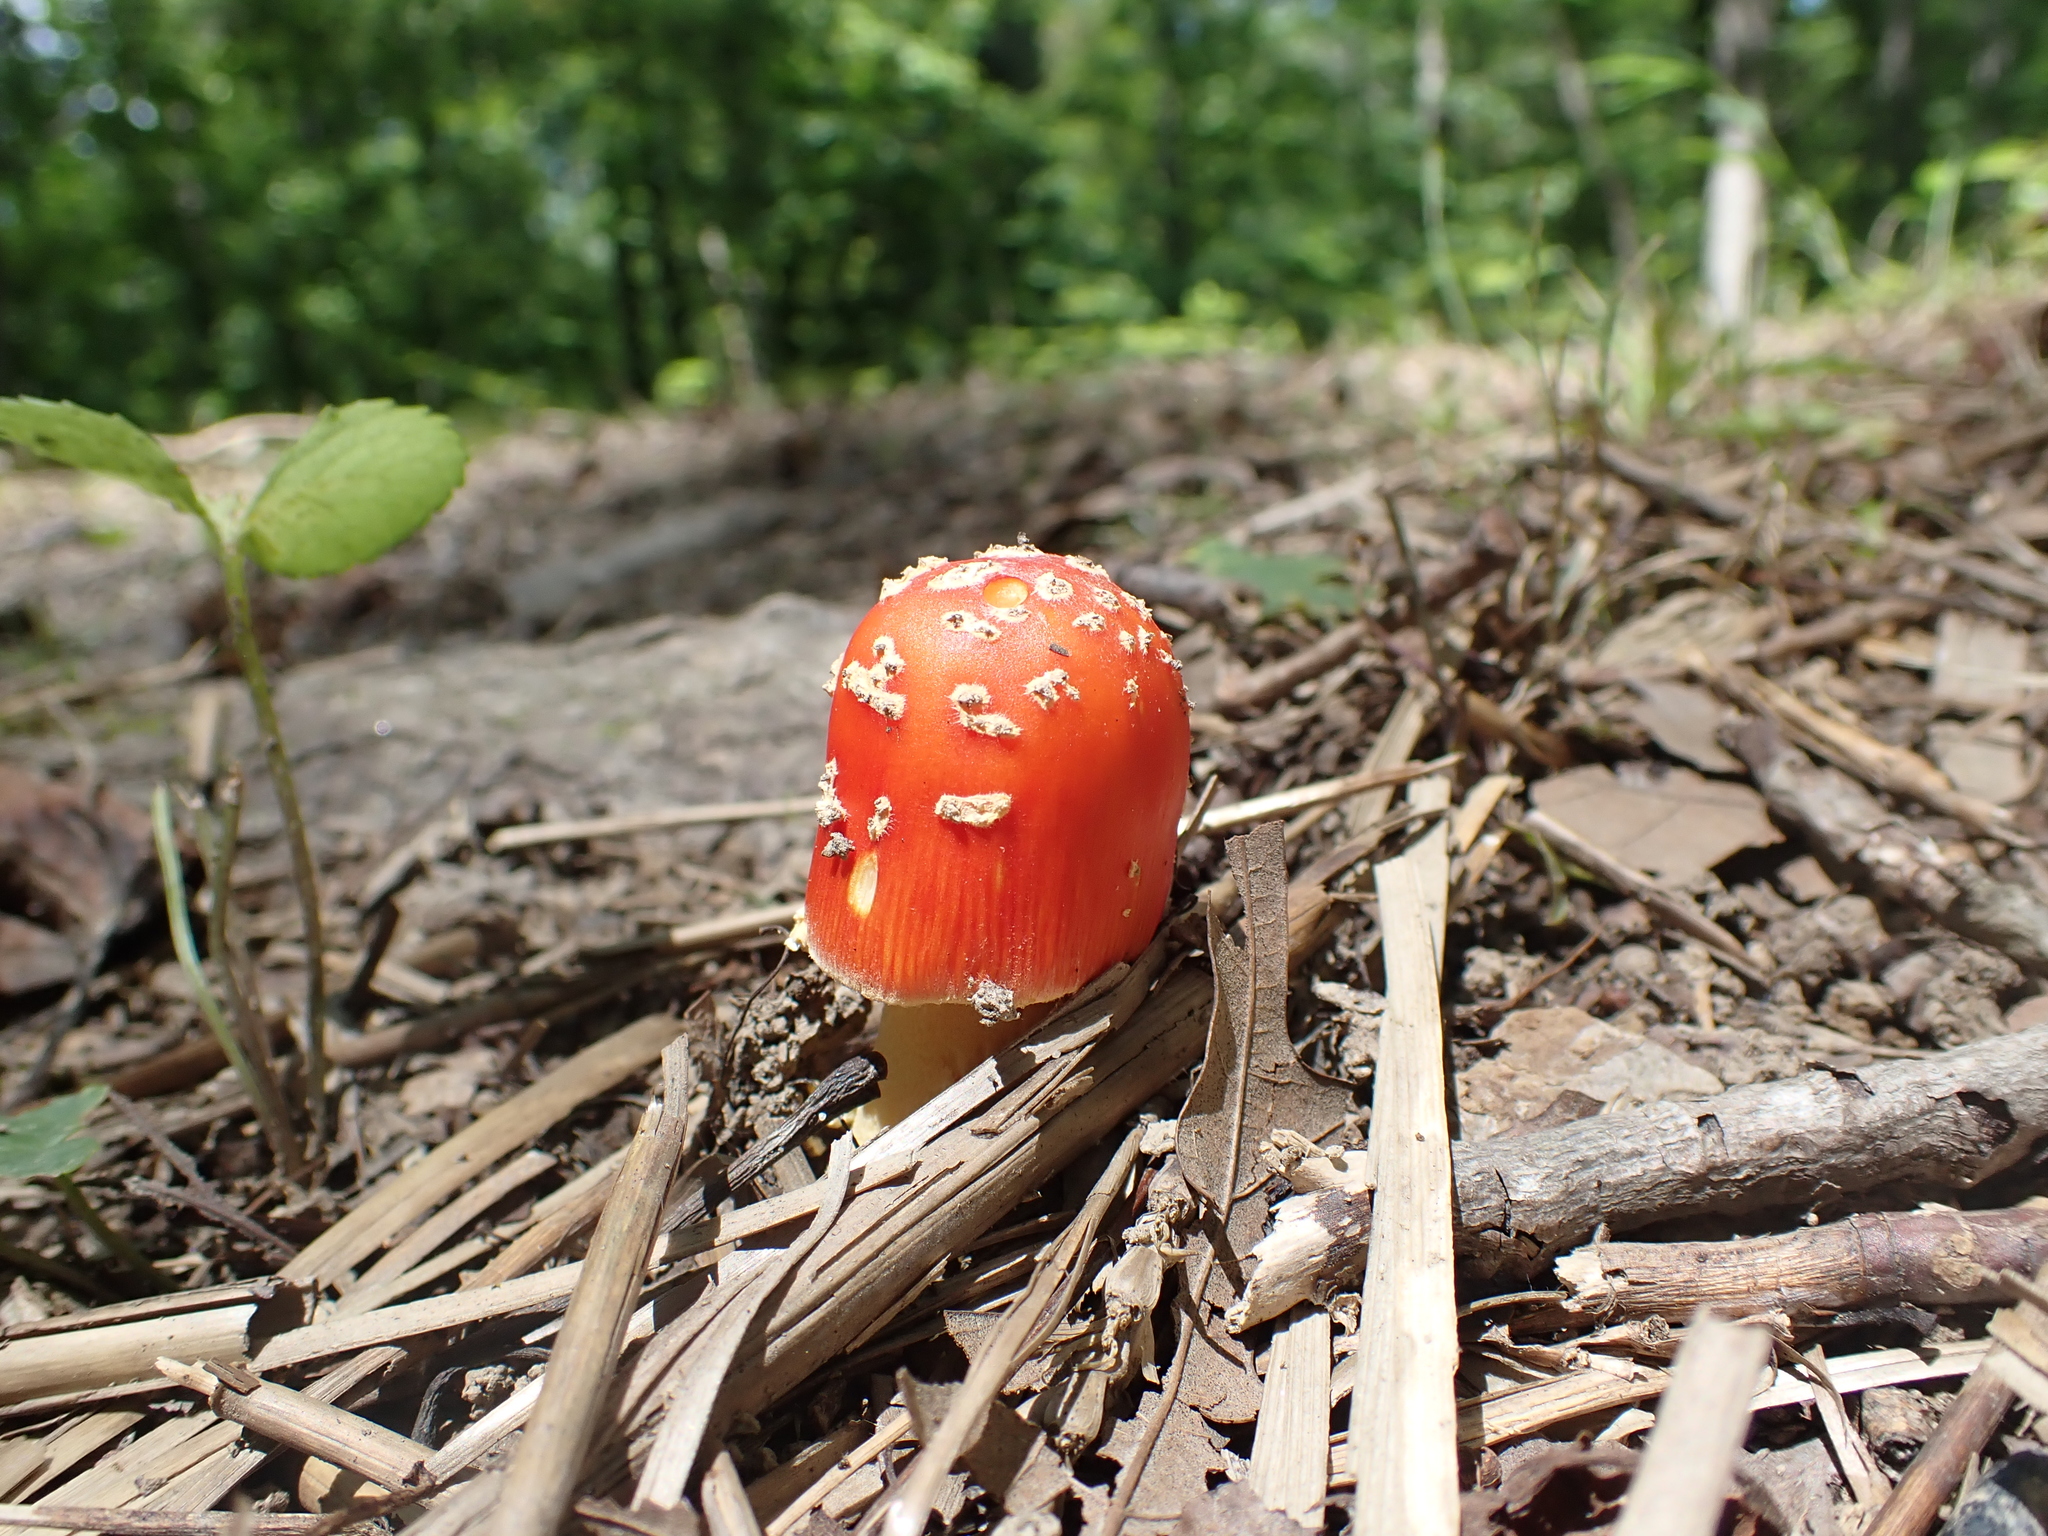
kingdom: Fungi
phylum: Basidiomycota
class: Agaricomycetes
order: Agaricales
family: Amanitaceae
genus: Amanita
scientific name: Amanita parcivolvata
